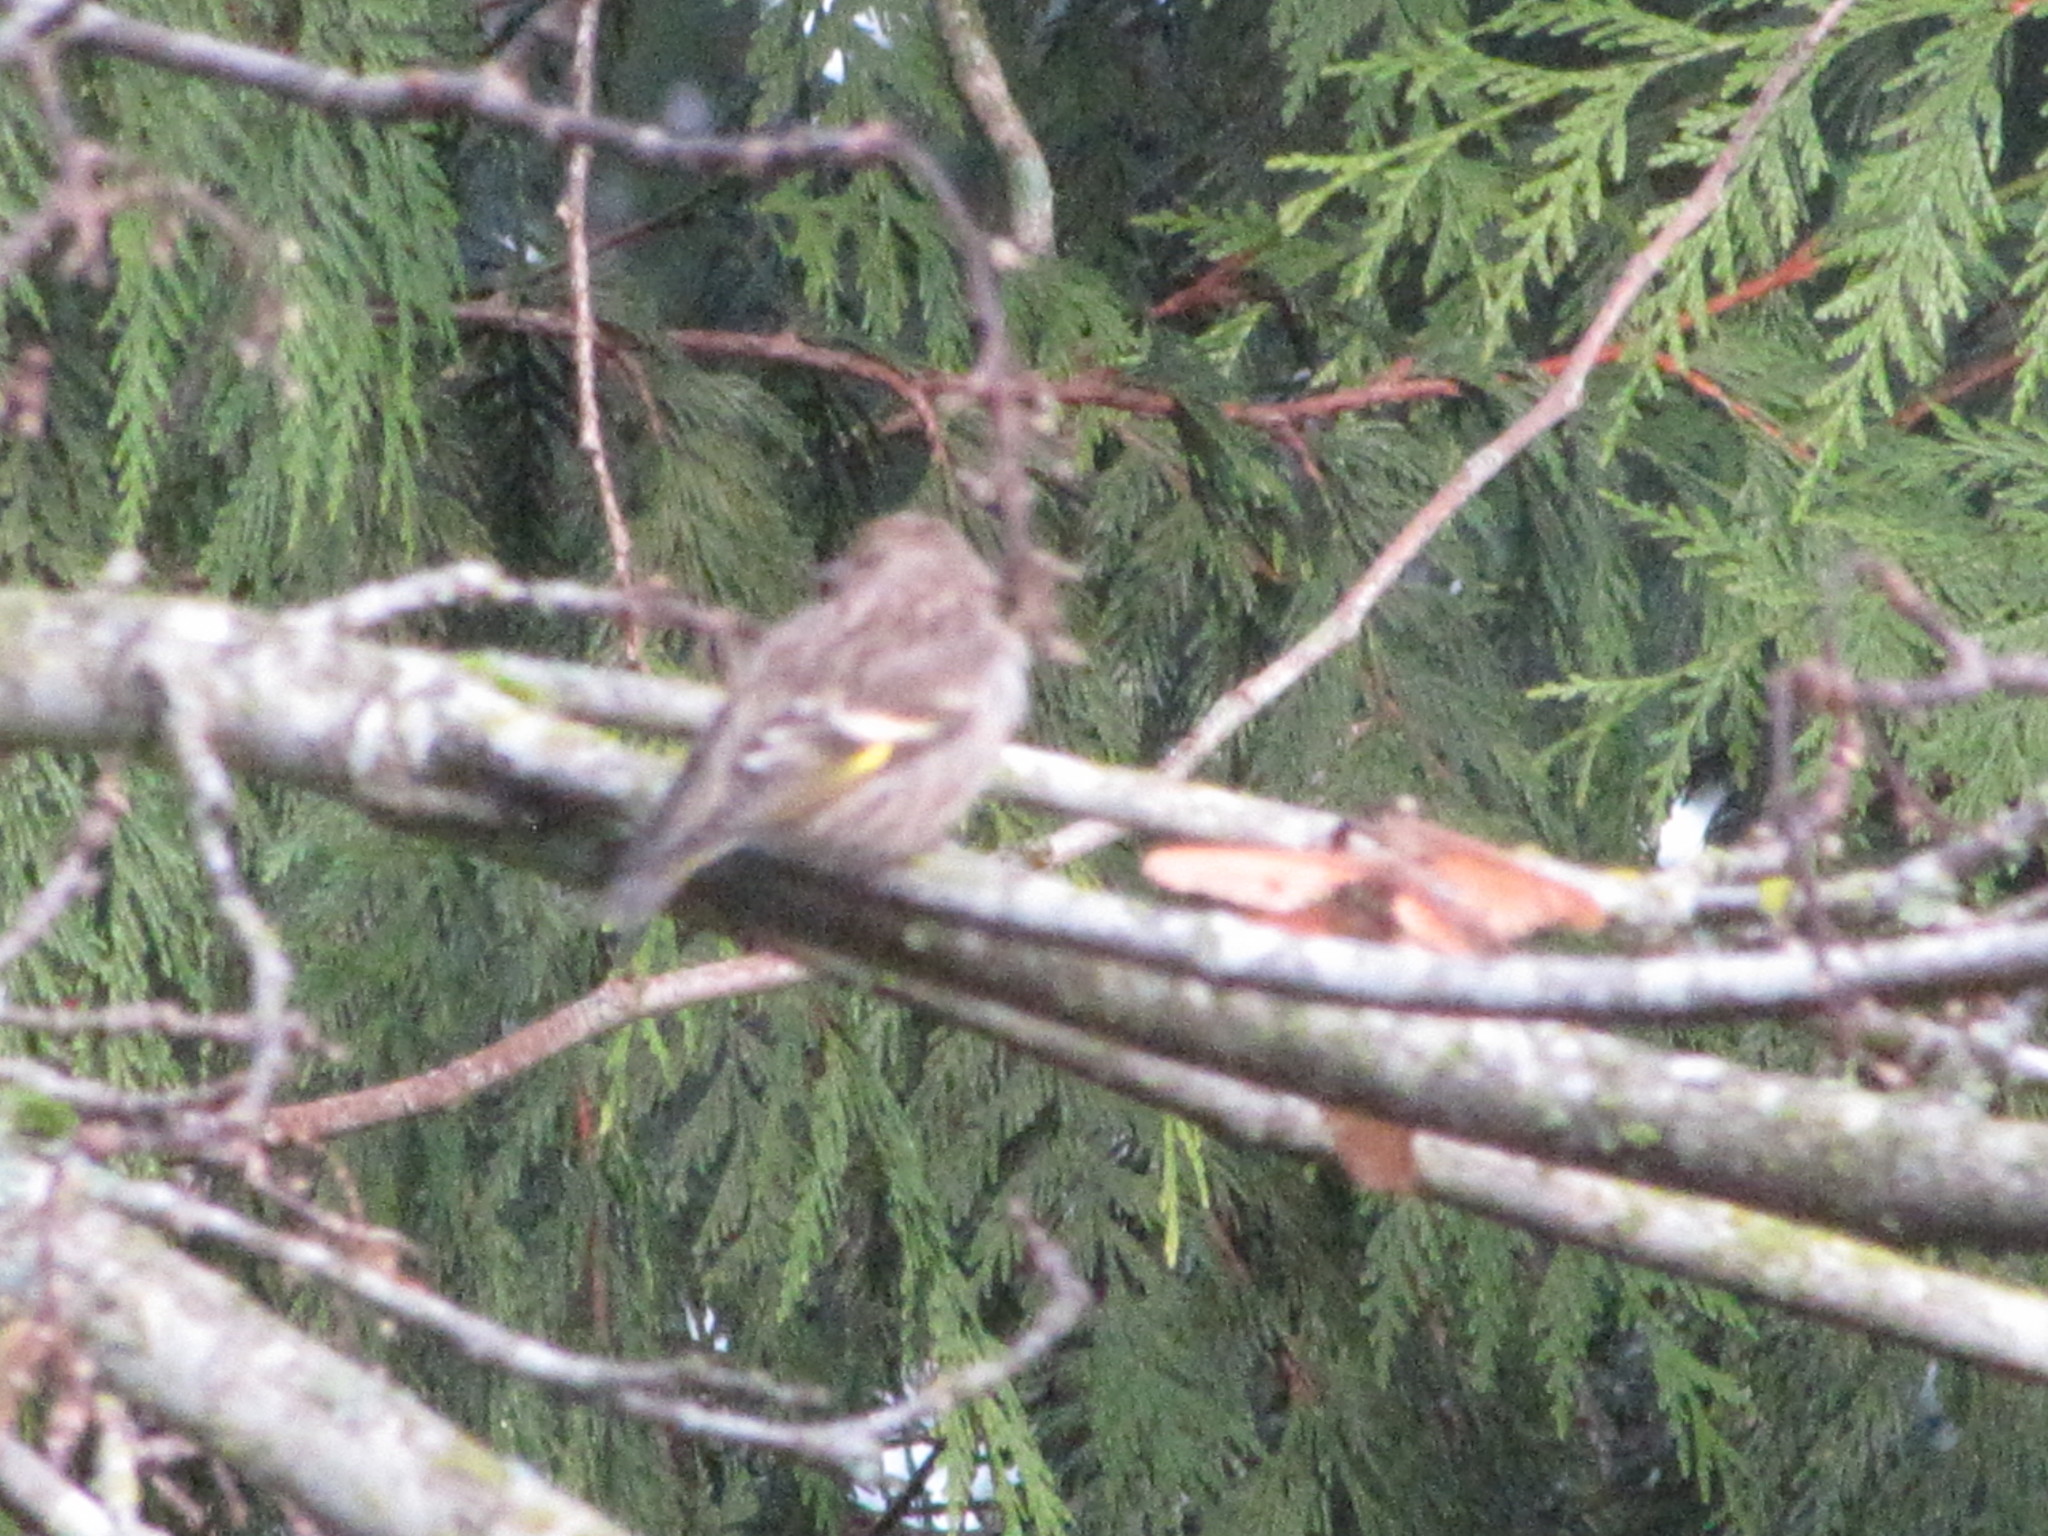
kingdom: Animalia
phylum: Chordata
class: Aves
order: Passeriformes
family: Fringillidae
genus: Spinus
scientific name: Spinus pinus
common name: Pine siskin
